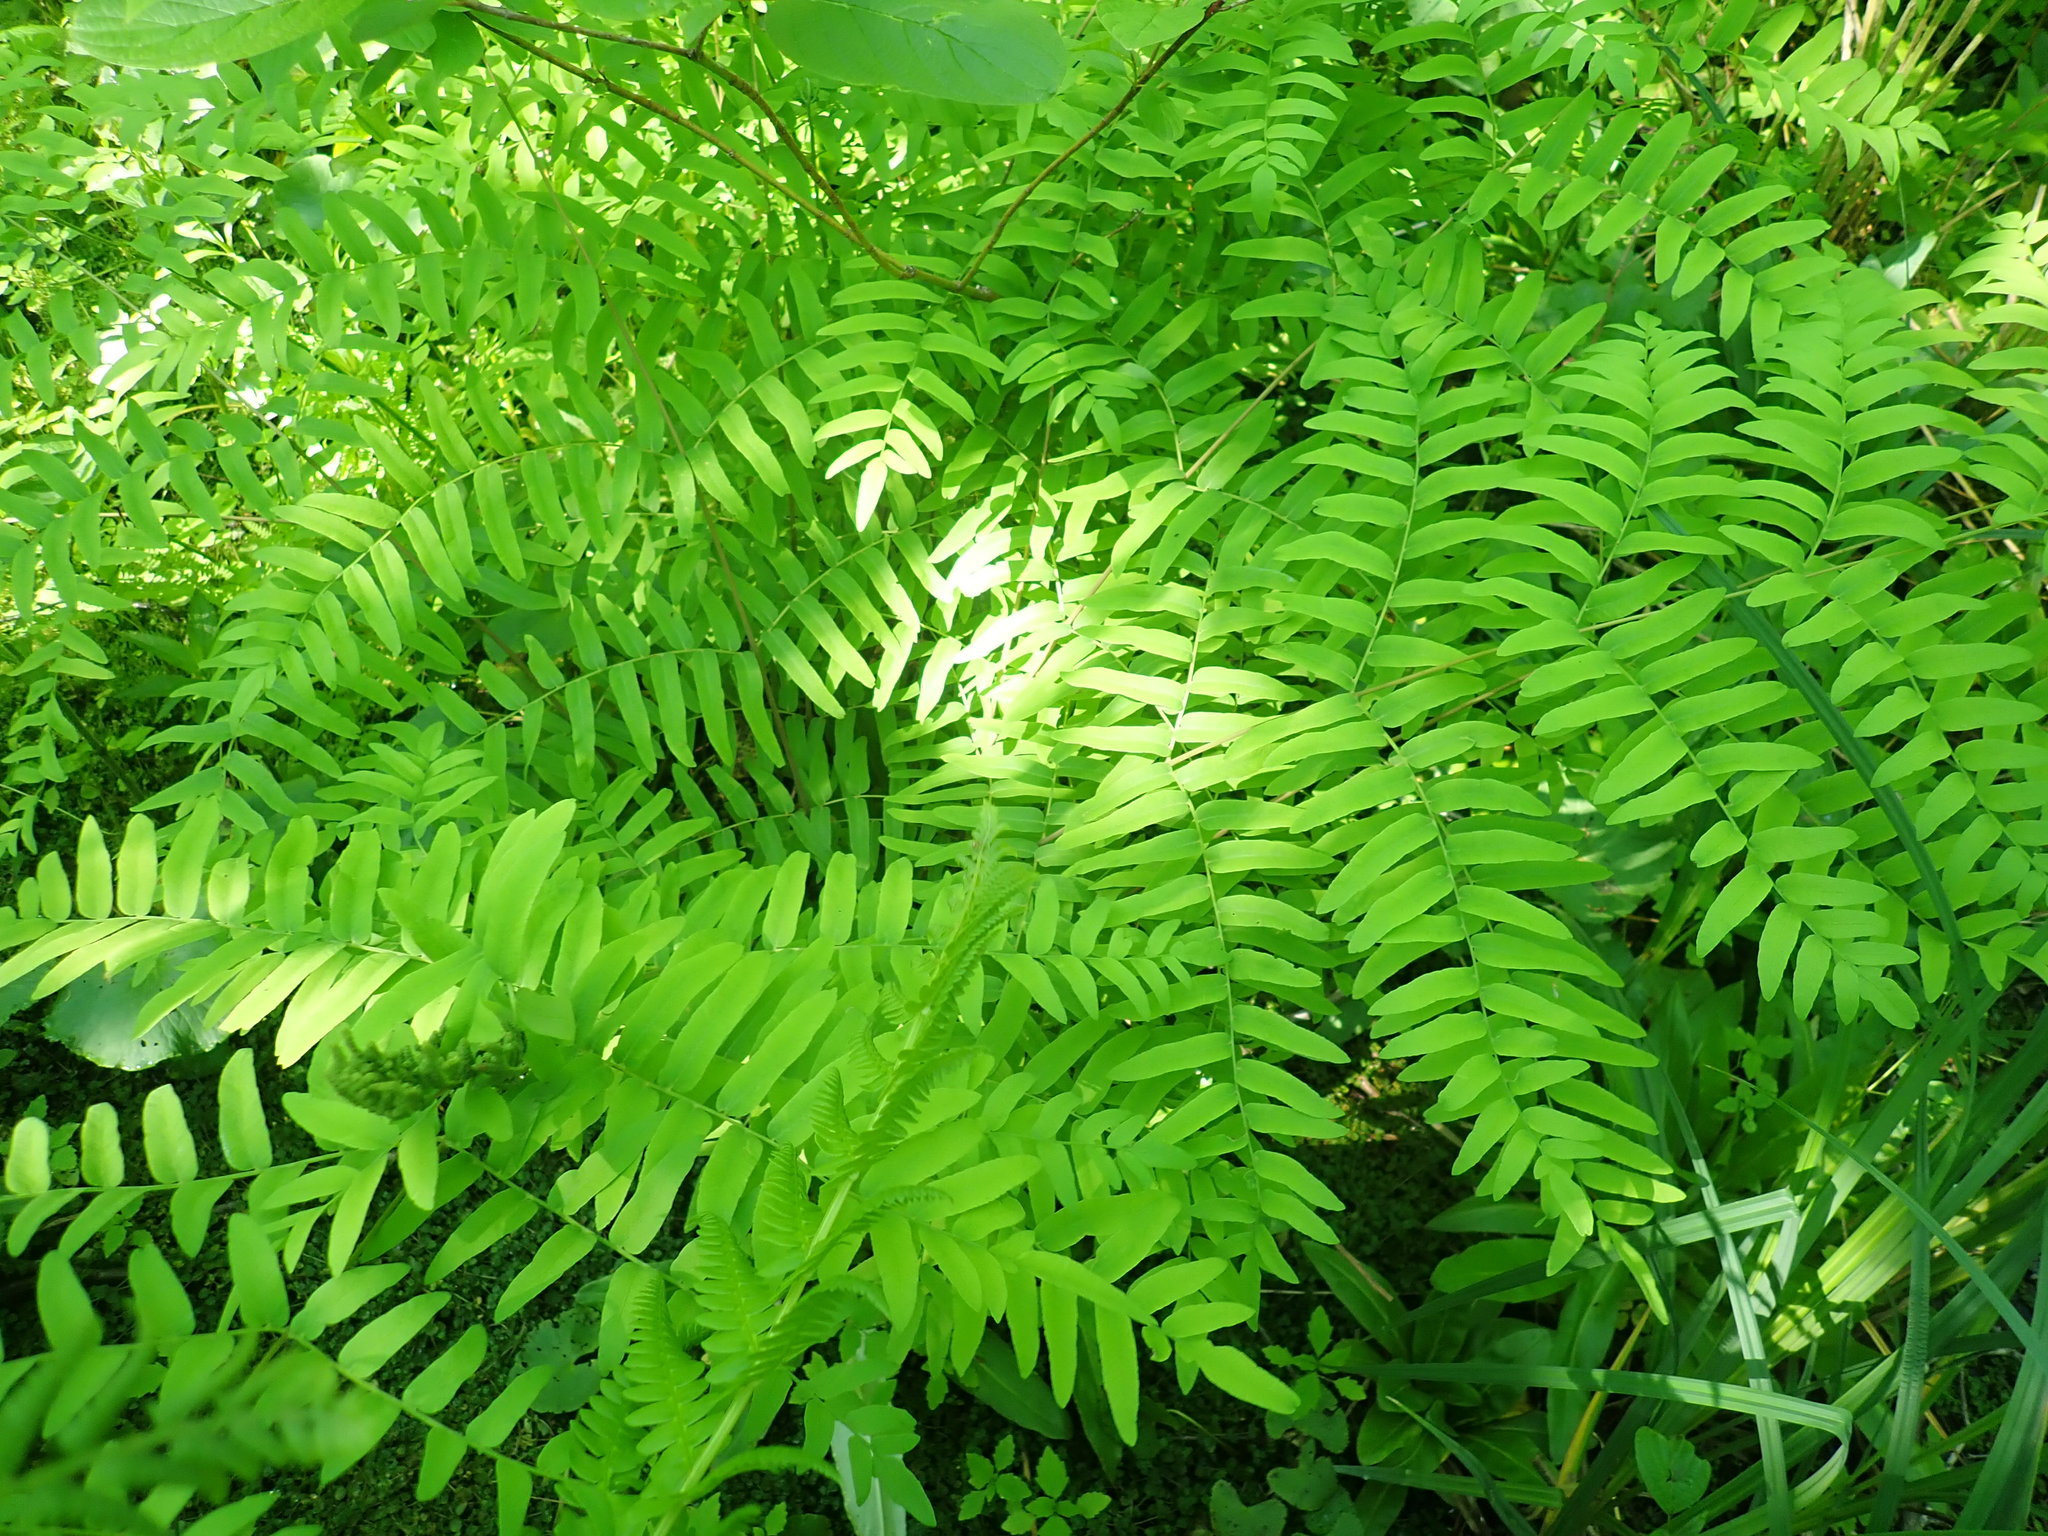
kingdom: Plantae
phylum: Tracheophyta
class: Polypodiopsida
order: Osmundales
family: Osmundaceae
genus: Osmunda
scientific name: Osmunda spectabilis
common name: American royal fern
